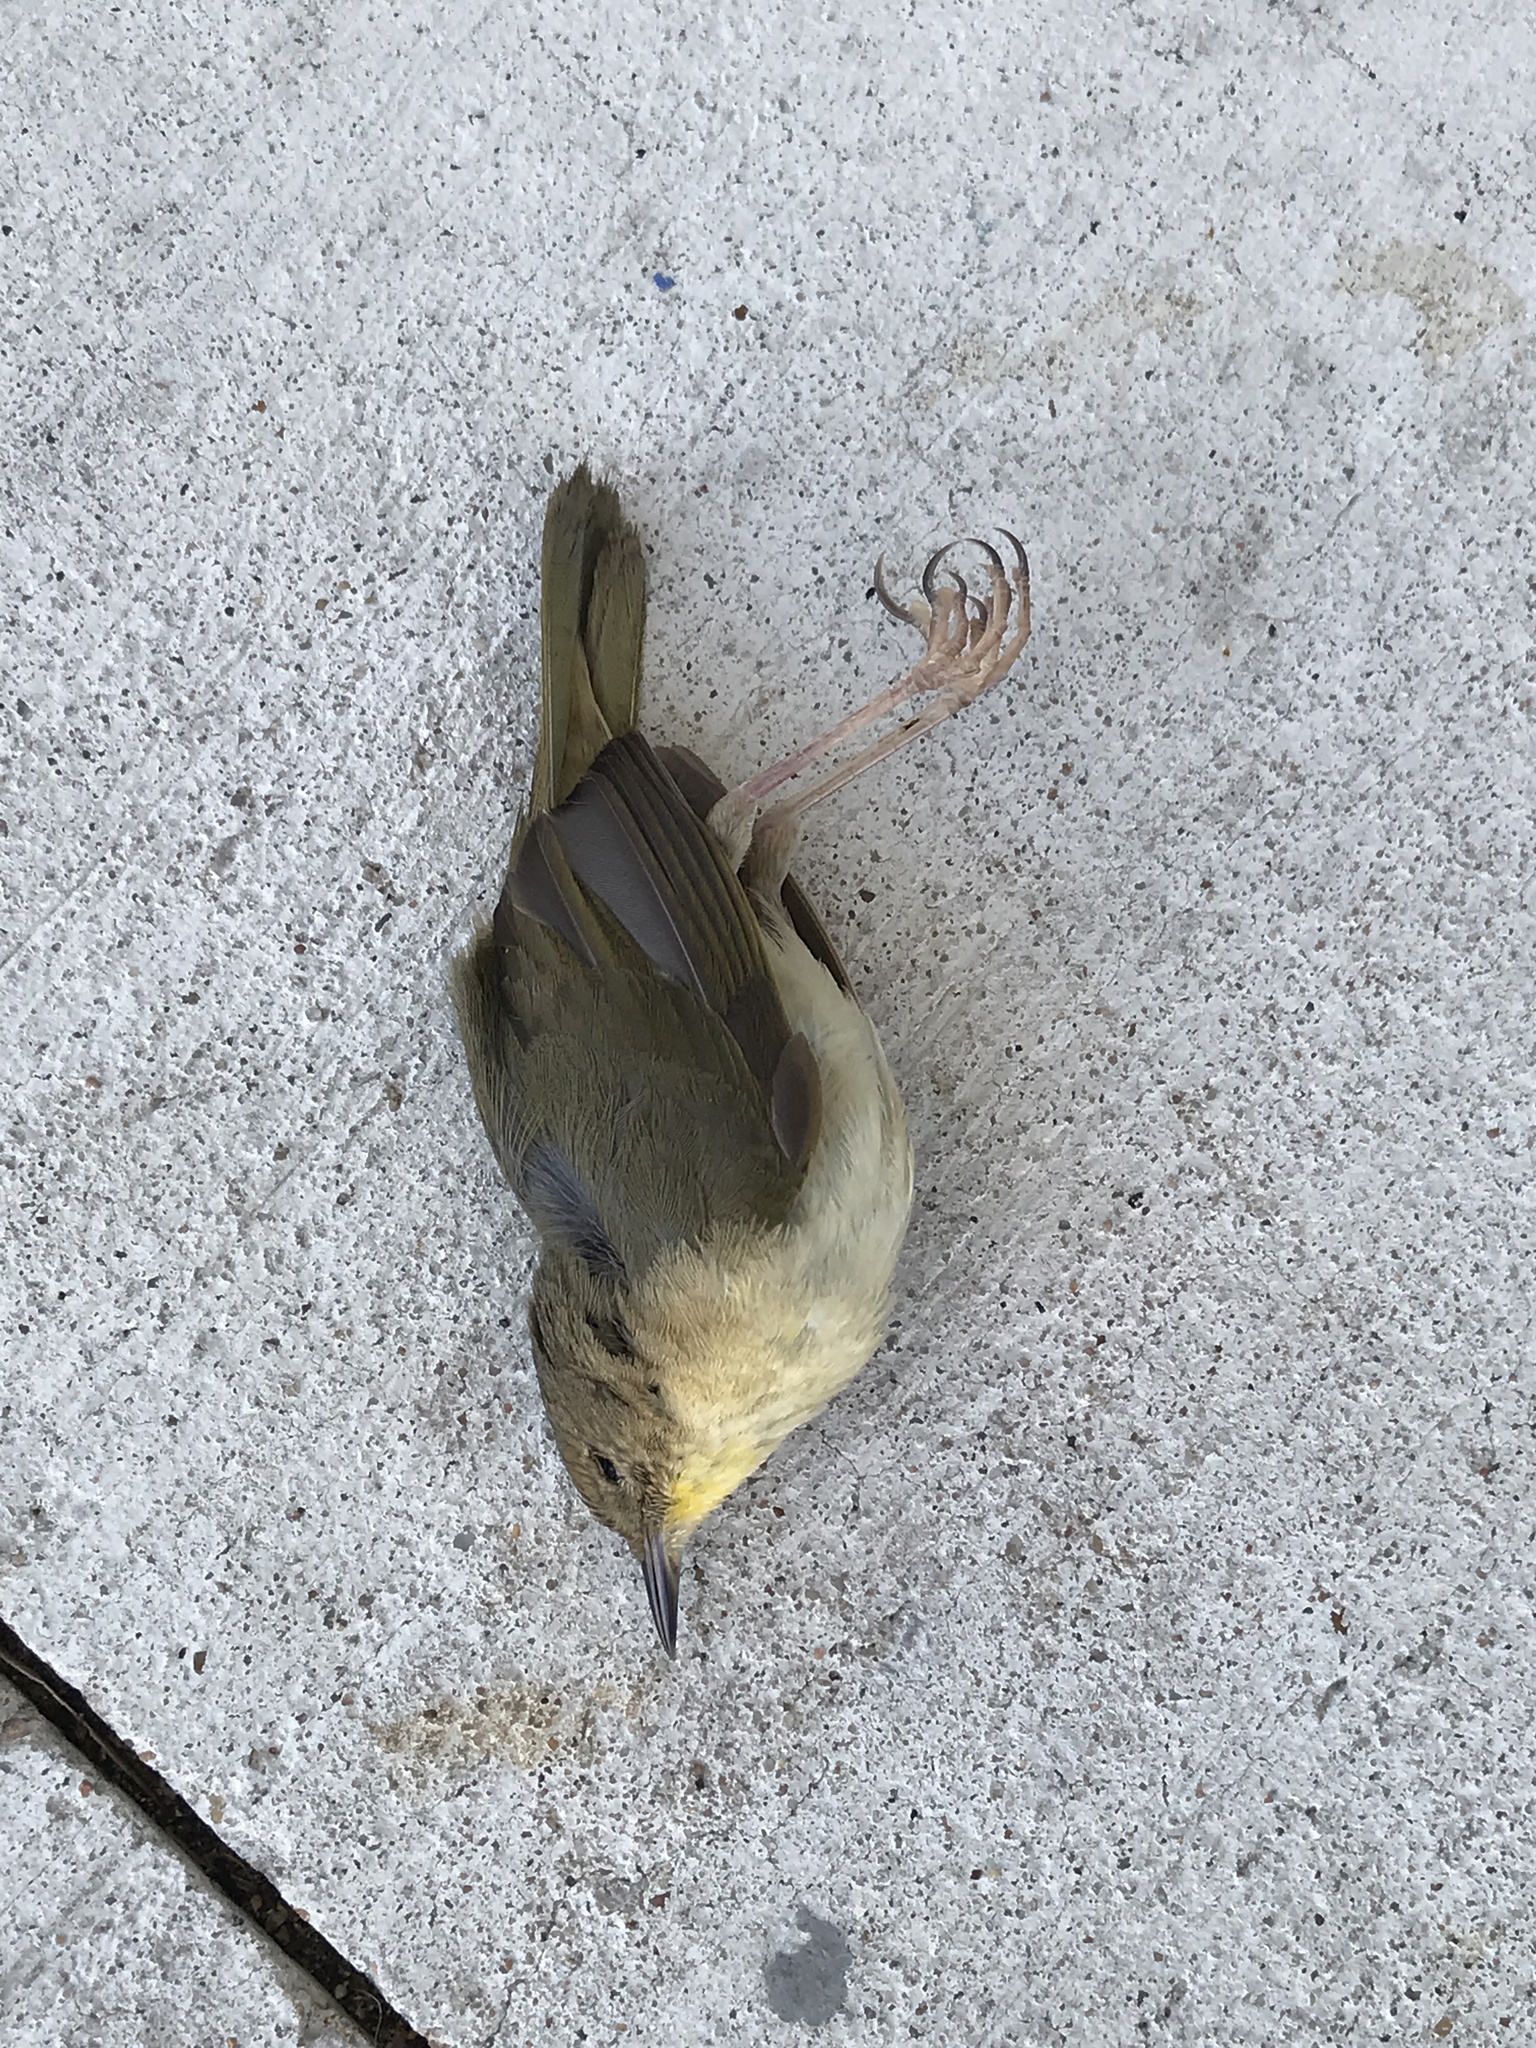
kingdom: Animalia
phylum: Chordata
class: Aves
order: Passeriformes
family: Parulidae
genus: Geothlypis
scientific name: Geothlypis trichas
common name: Common yellowthroat
